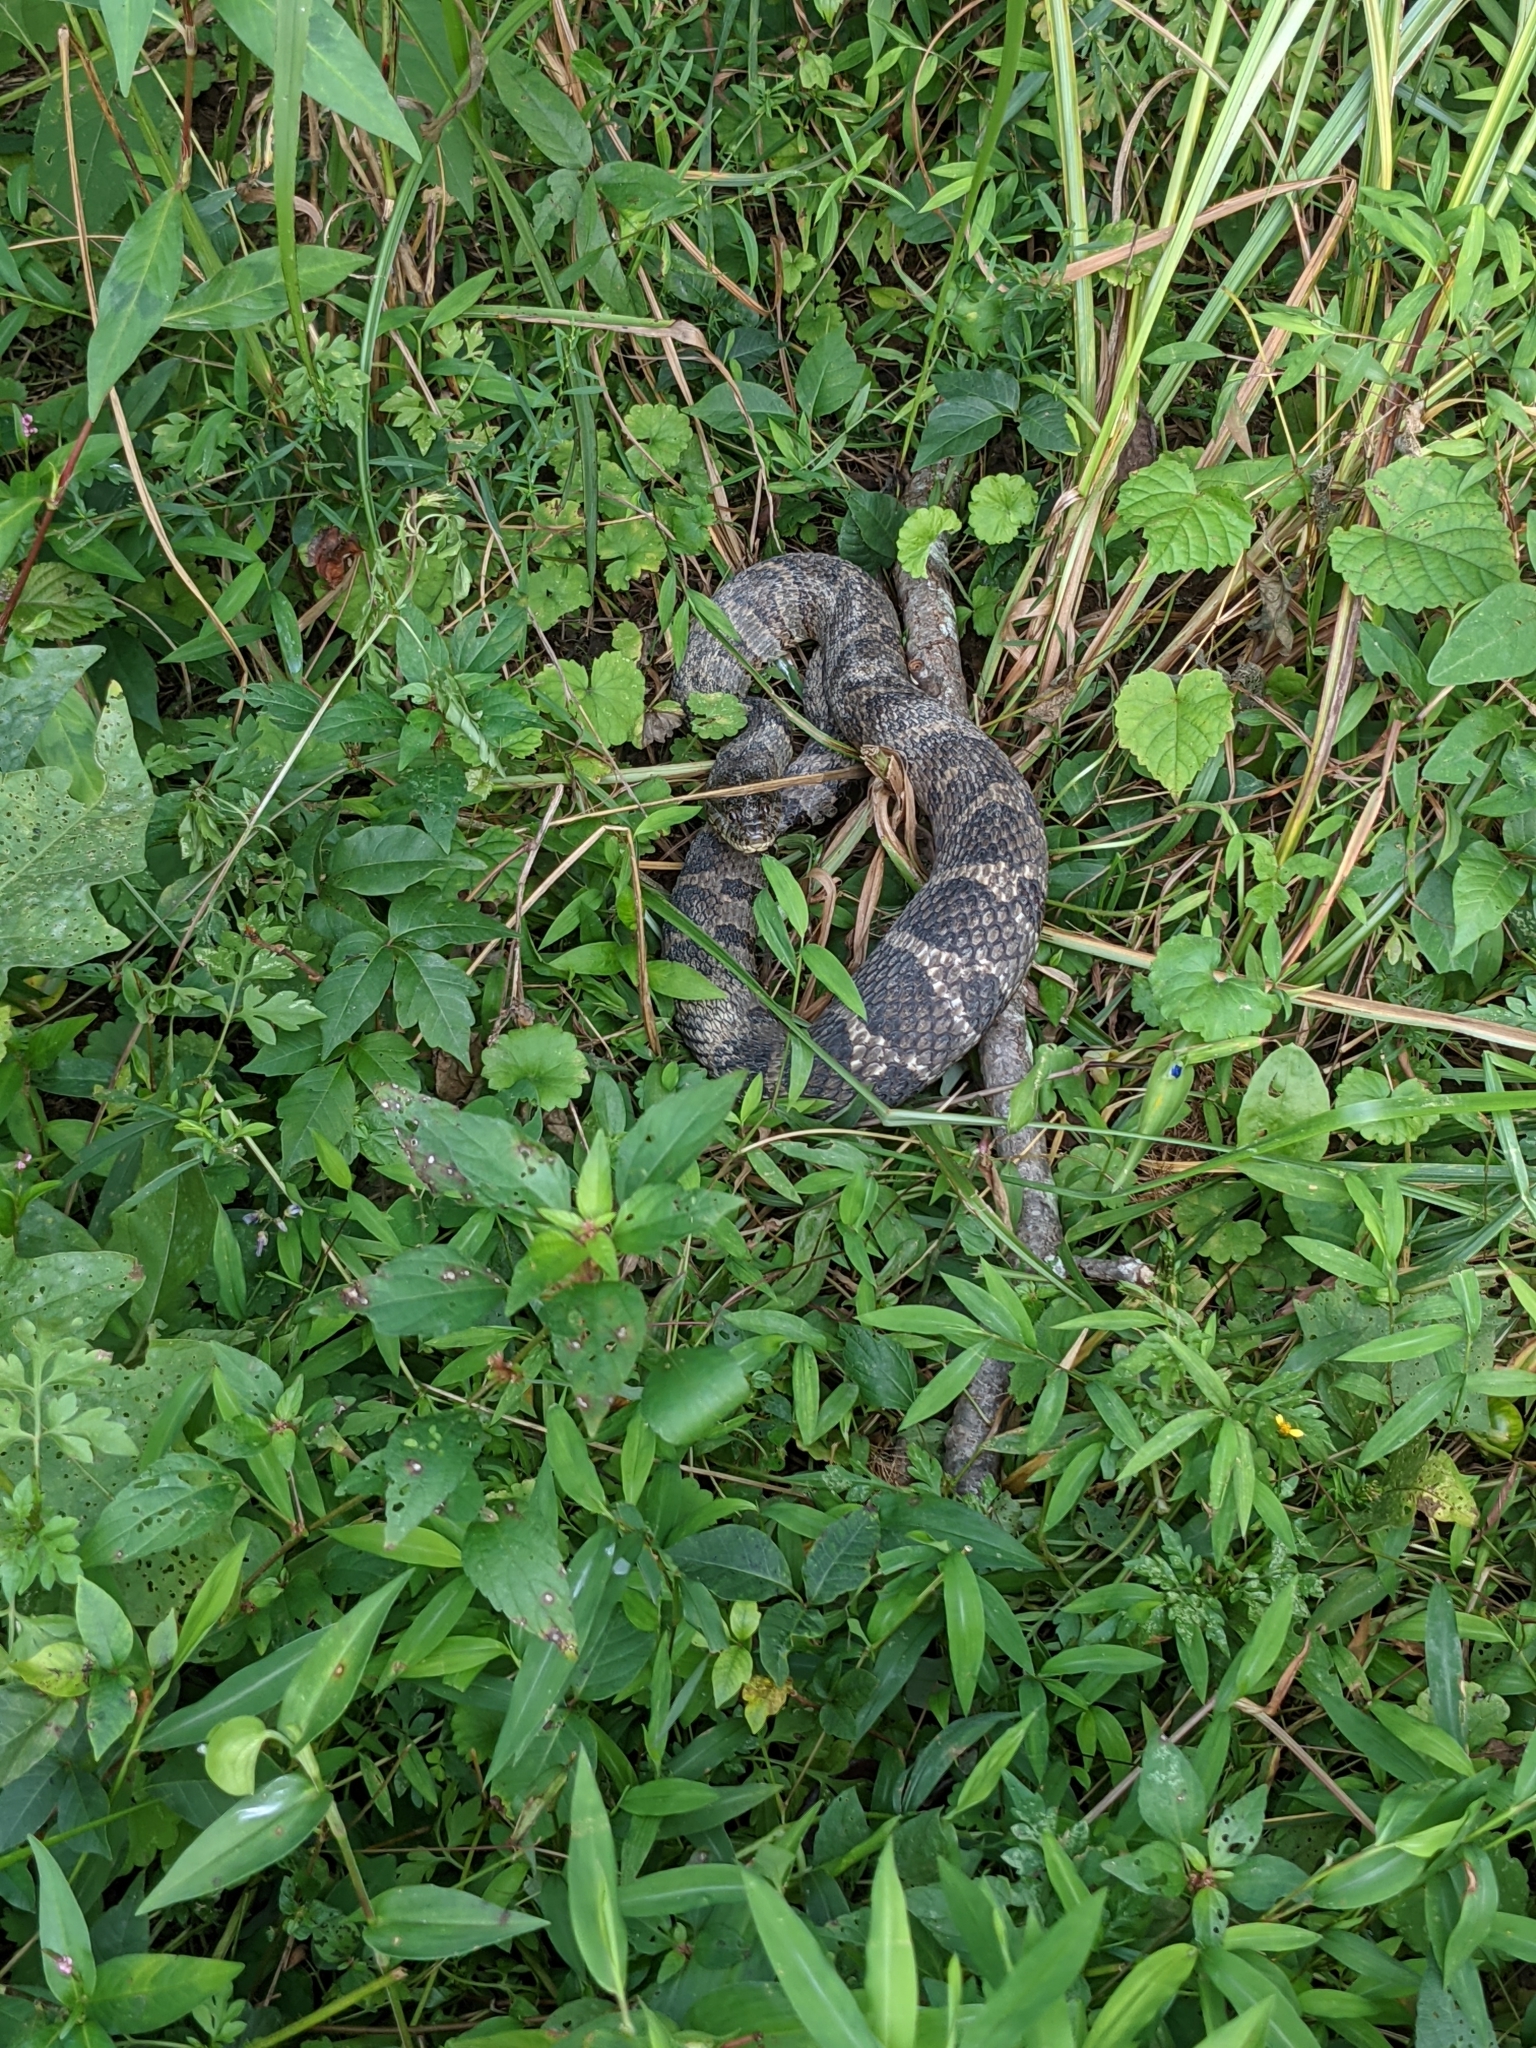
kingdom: Animalia
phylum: Chordata
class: Squamata
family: Colubridae
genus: Nerodia
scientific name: Nerodia sipedon
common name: Northern water snake
